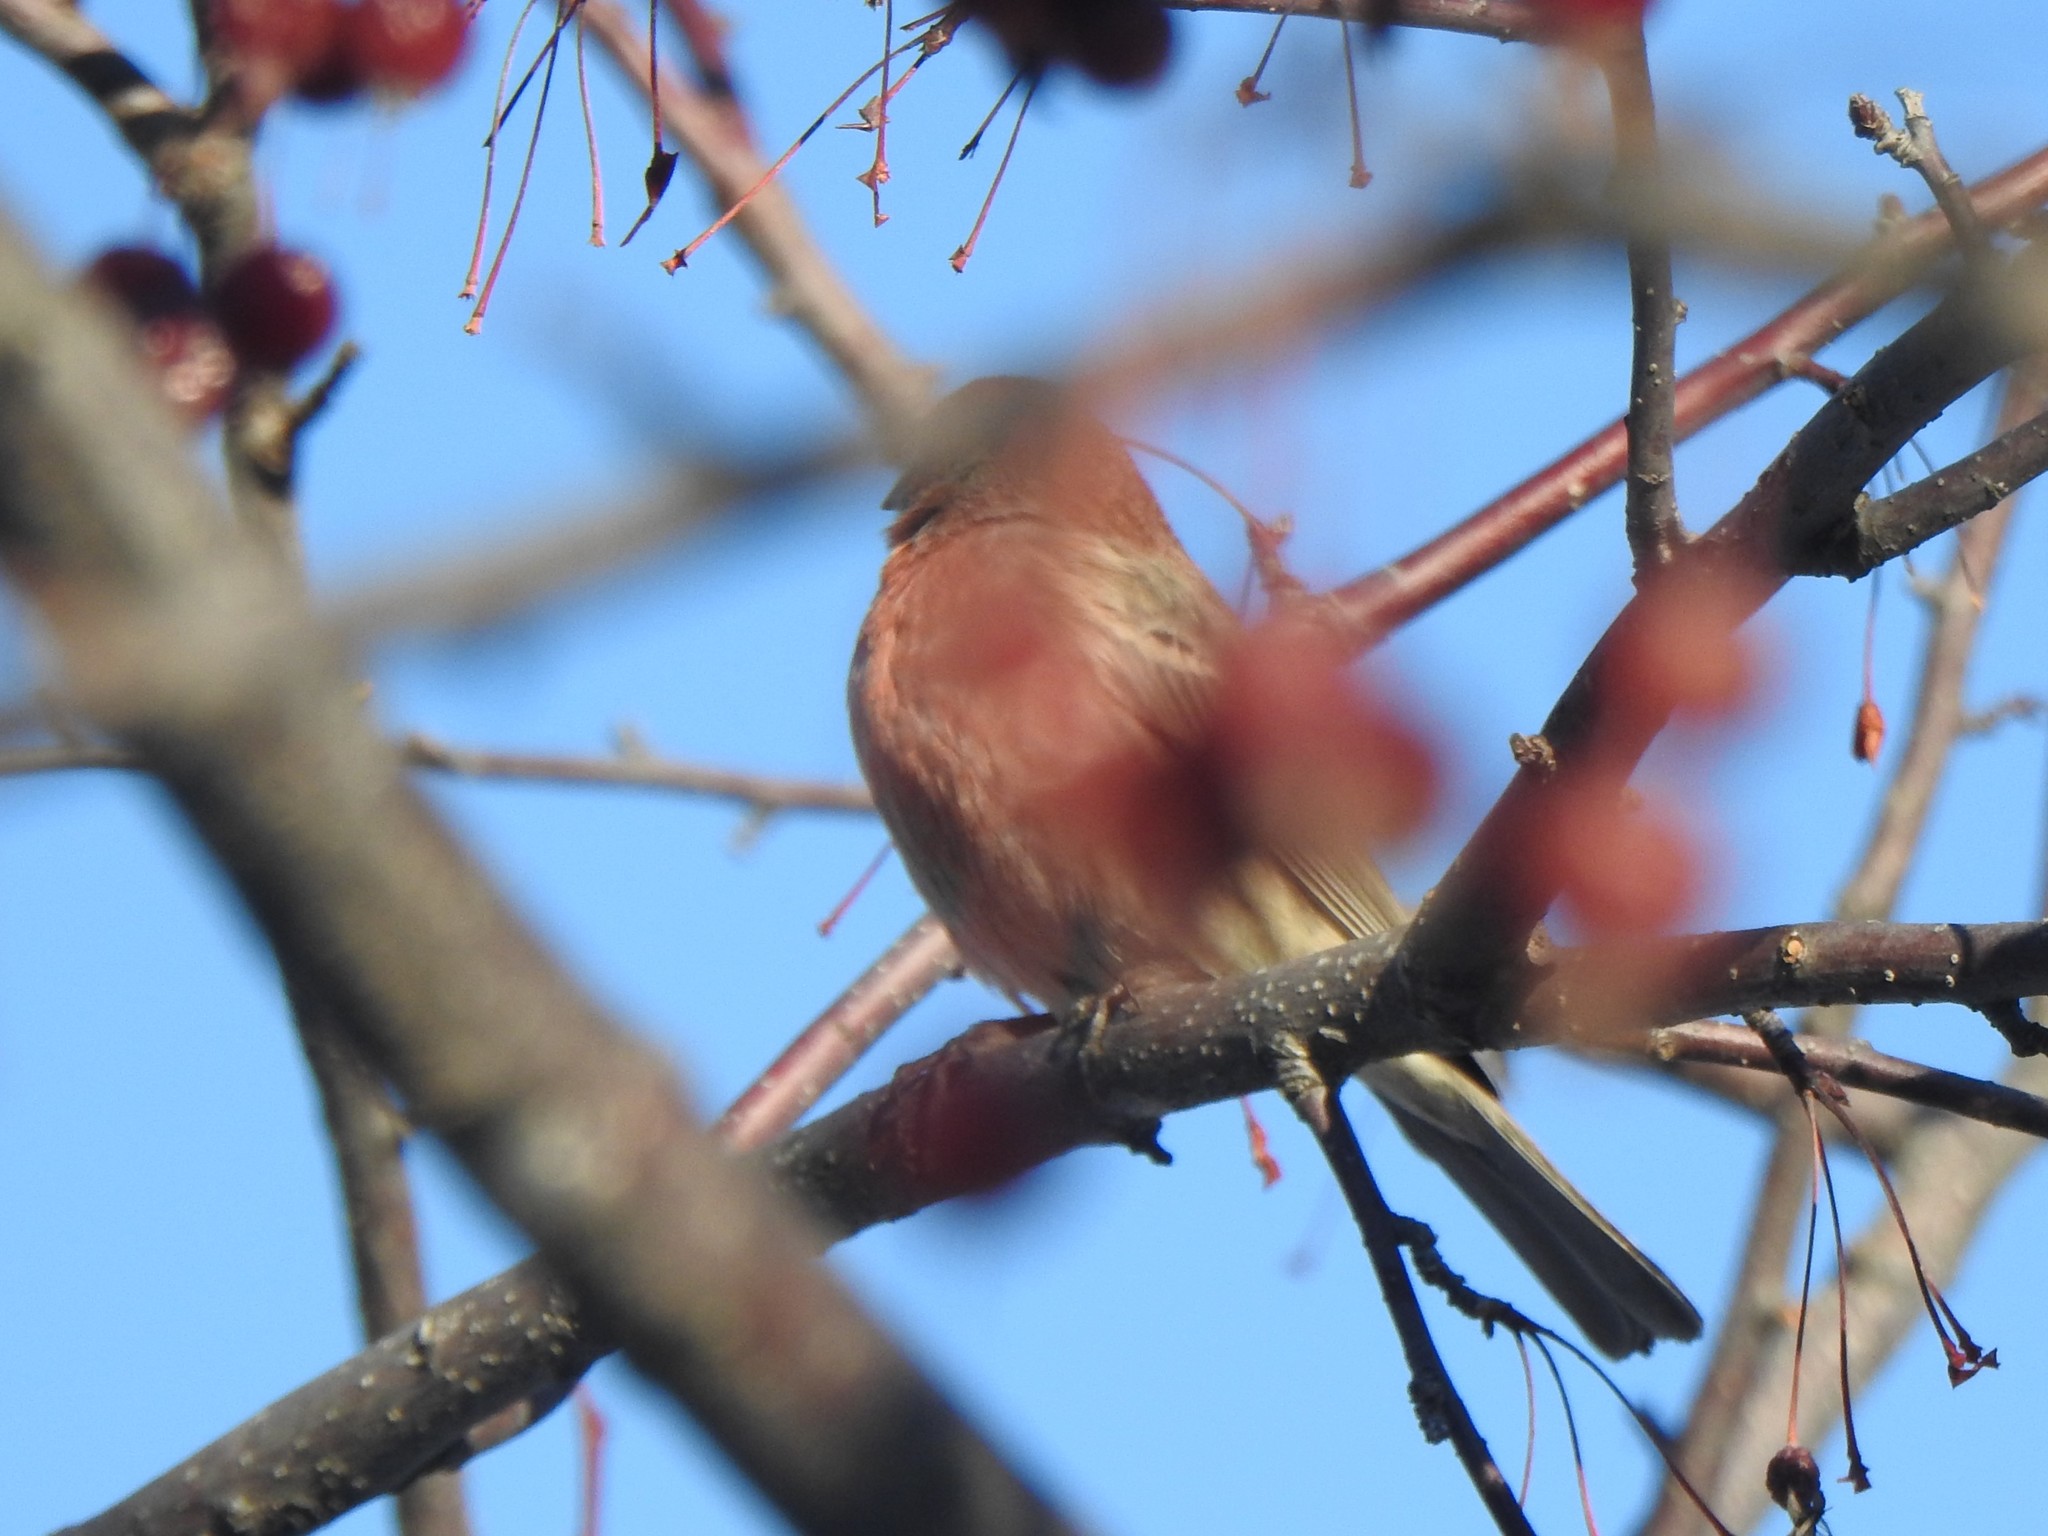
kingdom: Animalia
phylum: Chordata
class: Aves
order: Passeriformes
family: Fringillidae
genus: Haemorhous
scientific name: Haemorhous mexicanus
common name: House finch
